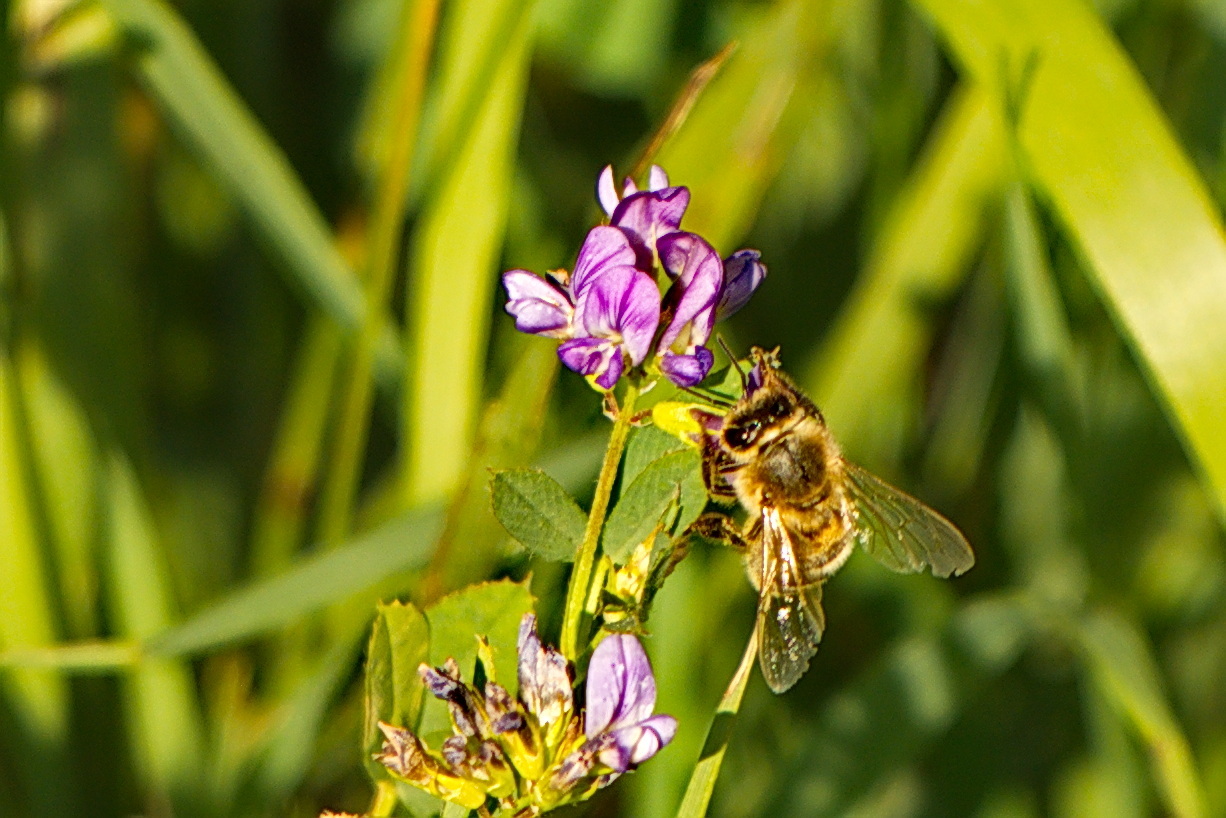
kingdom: Animalia
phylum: Arthropoda
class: Insecta
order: Hymenoptera
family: Apidae
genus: Apis
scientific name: Apis mellifera
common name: Honey bee
